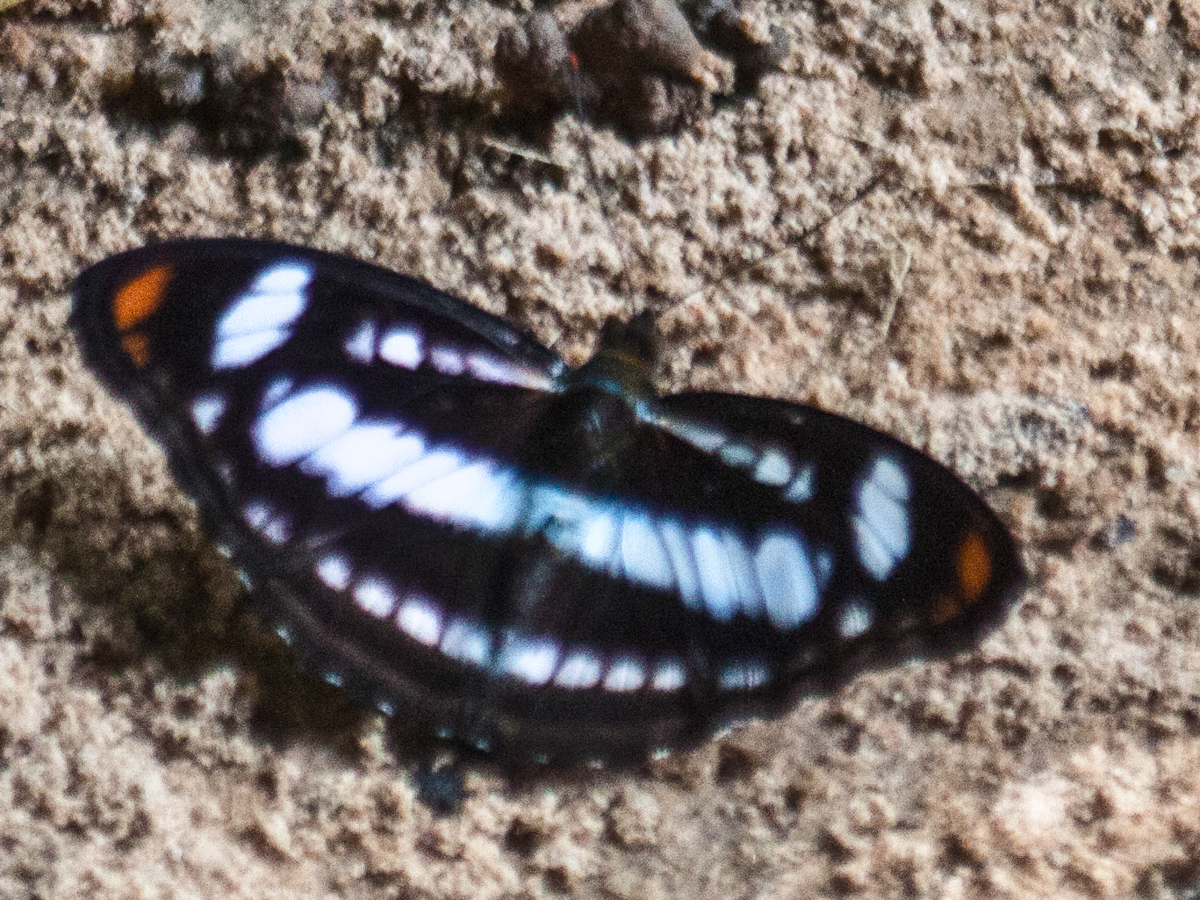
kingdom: Animalia
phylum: Arthropoda
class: Insecta
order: Lepidoptera
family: Nymphalidae
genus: Parathyma
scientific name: Parathyma nefte
